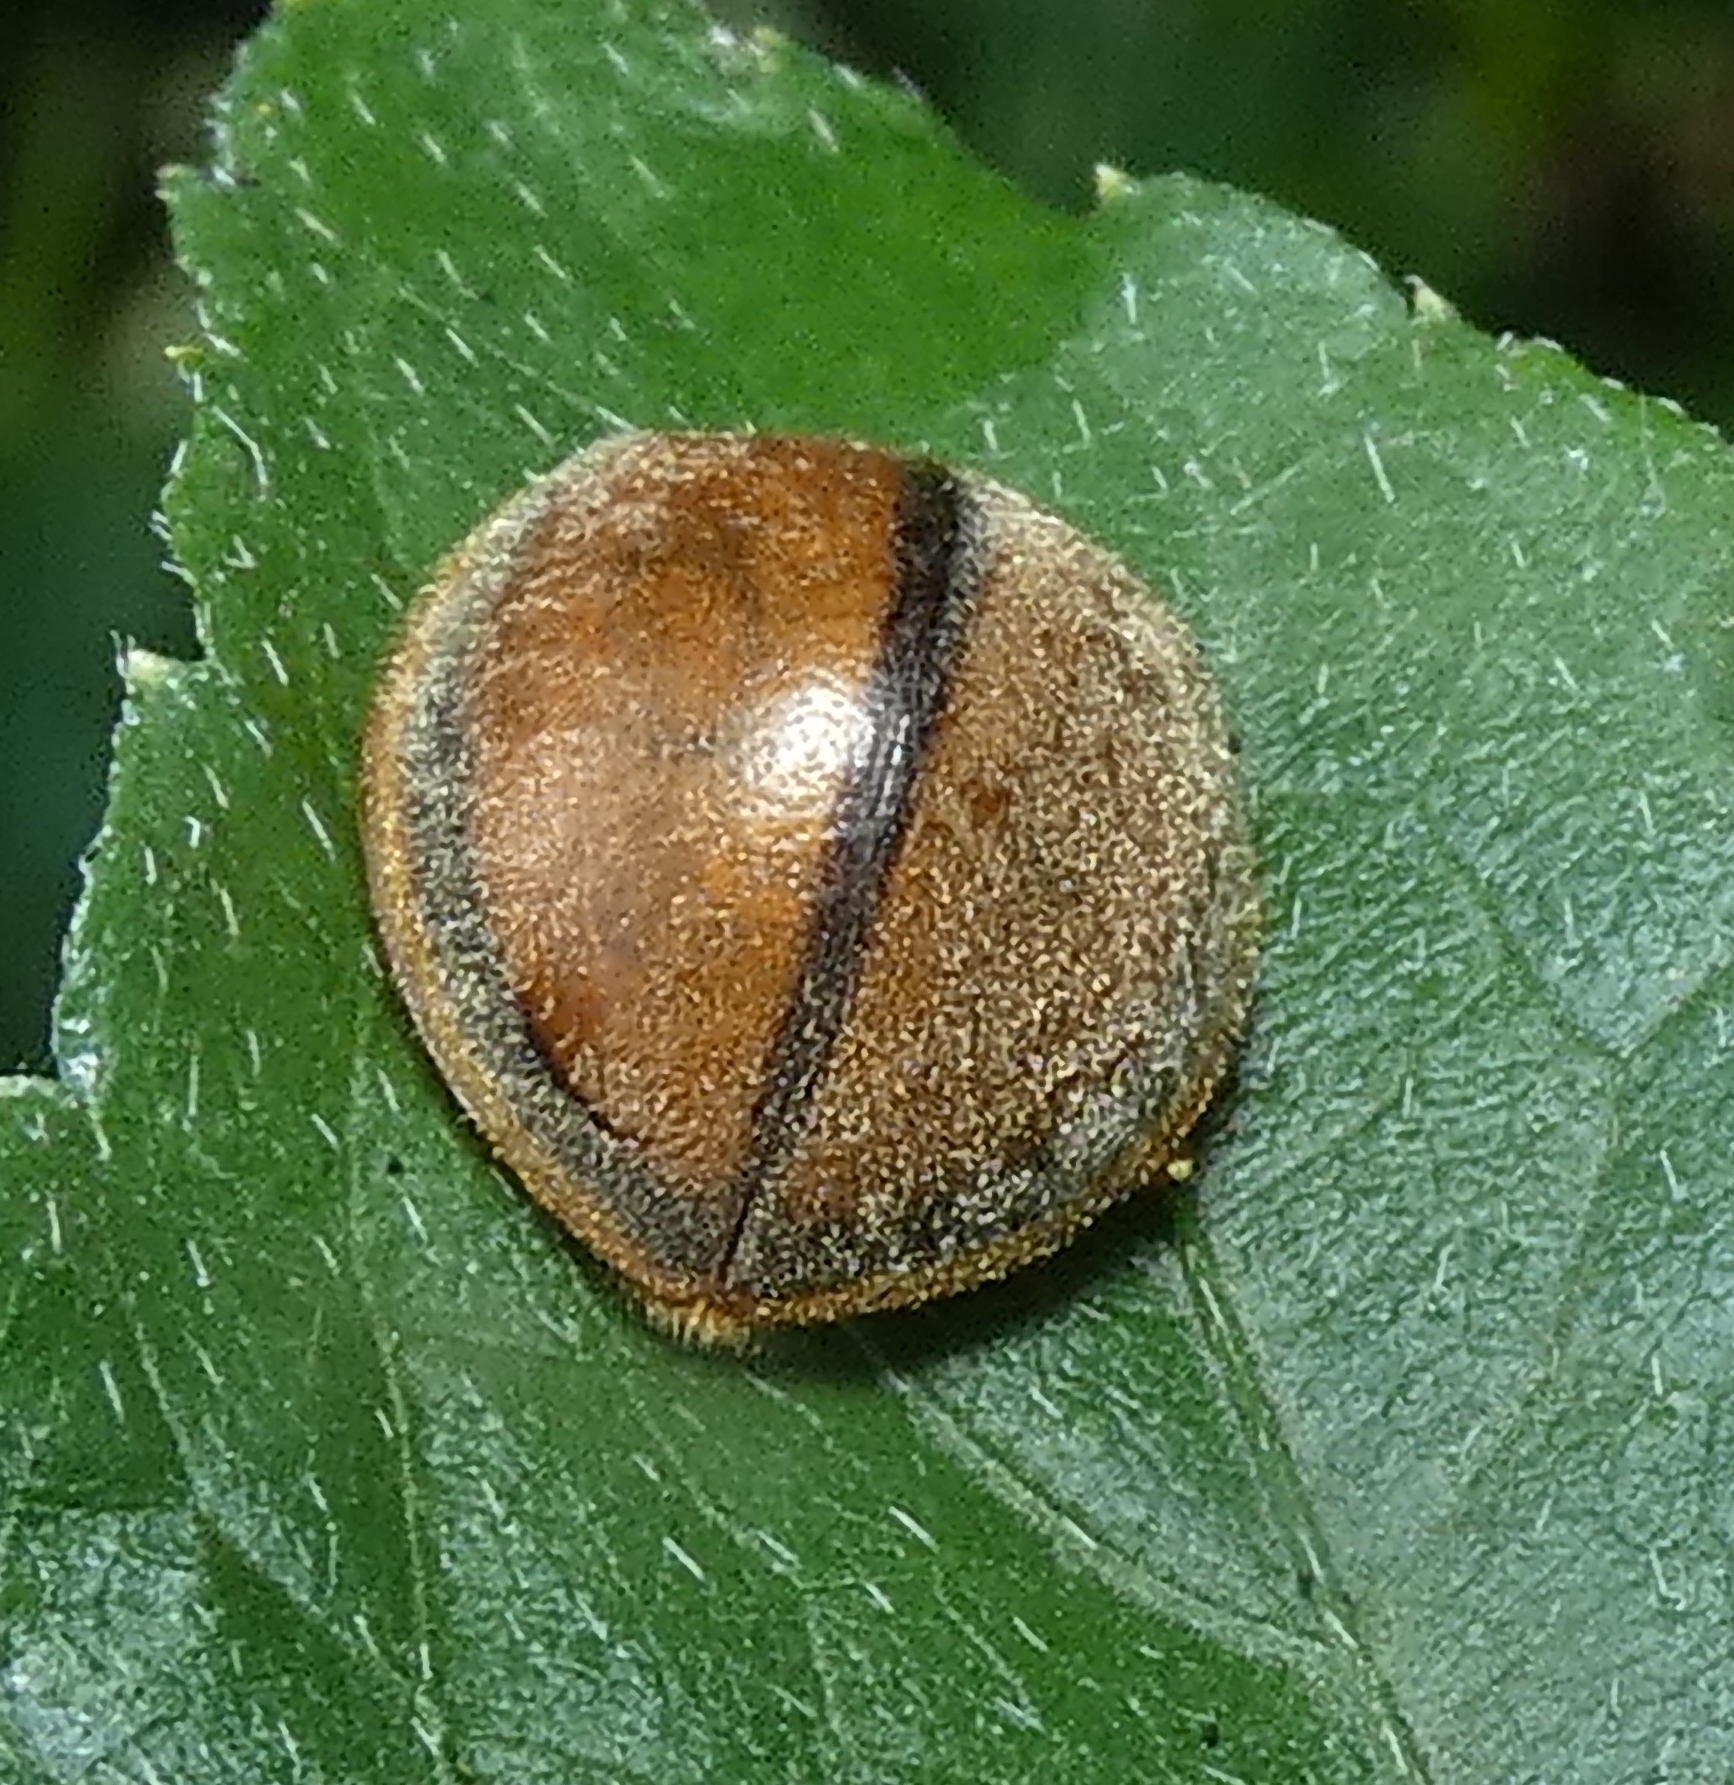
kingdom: Animalia
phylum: Arthropoda
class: Insecta
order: Coleoptera
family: Coccinellidae
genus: Epilachna
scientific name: Epilachna cacica
